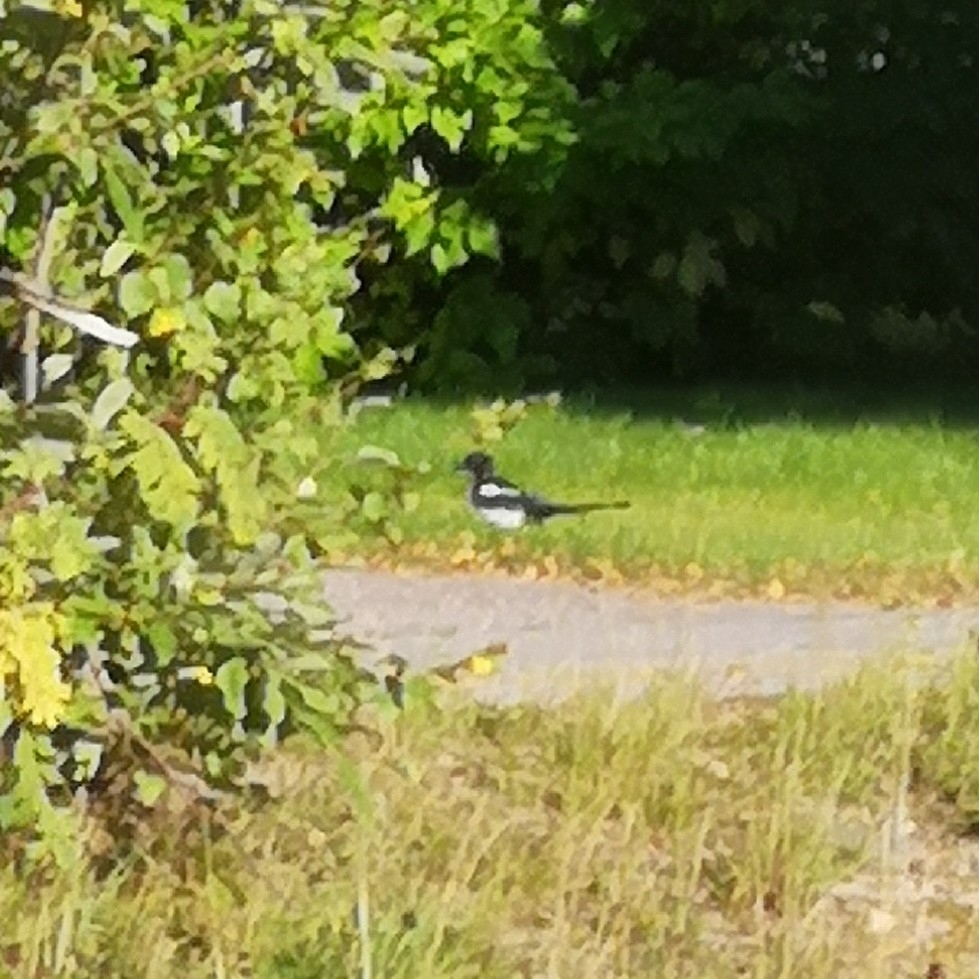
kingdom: Animalia
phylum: Chordata
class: Aves
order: Passeriformes
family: Corvidae
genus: Pica
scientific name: Pica pica
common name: Eurasian magpie
